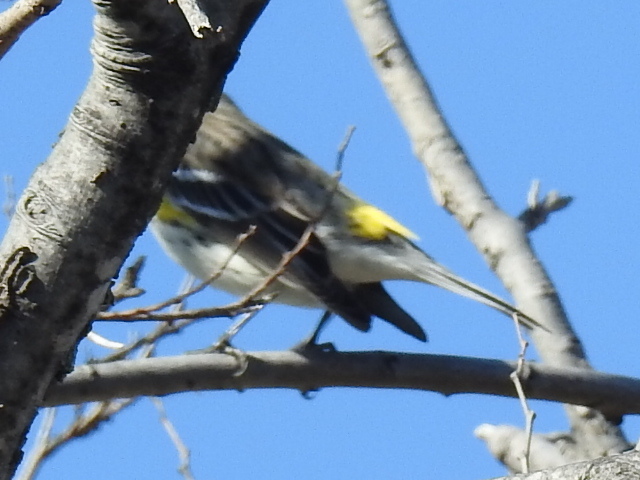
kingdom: Animalia
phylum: Chordata
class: Aves
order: Passeriformes
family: Parulidae
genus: Setophaga
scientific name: Setophaga coronata
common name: Myrtle warbler
